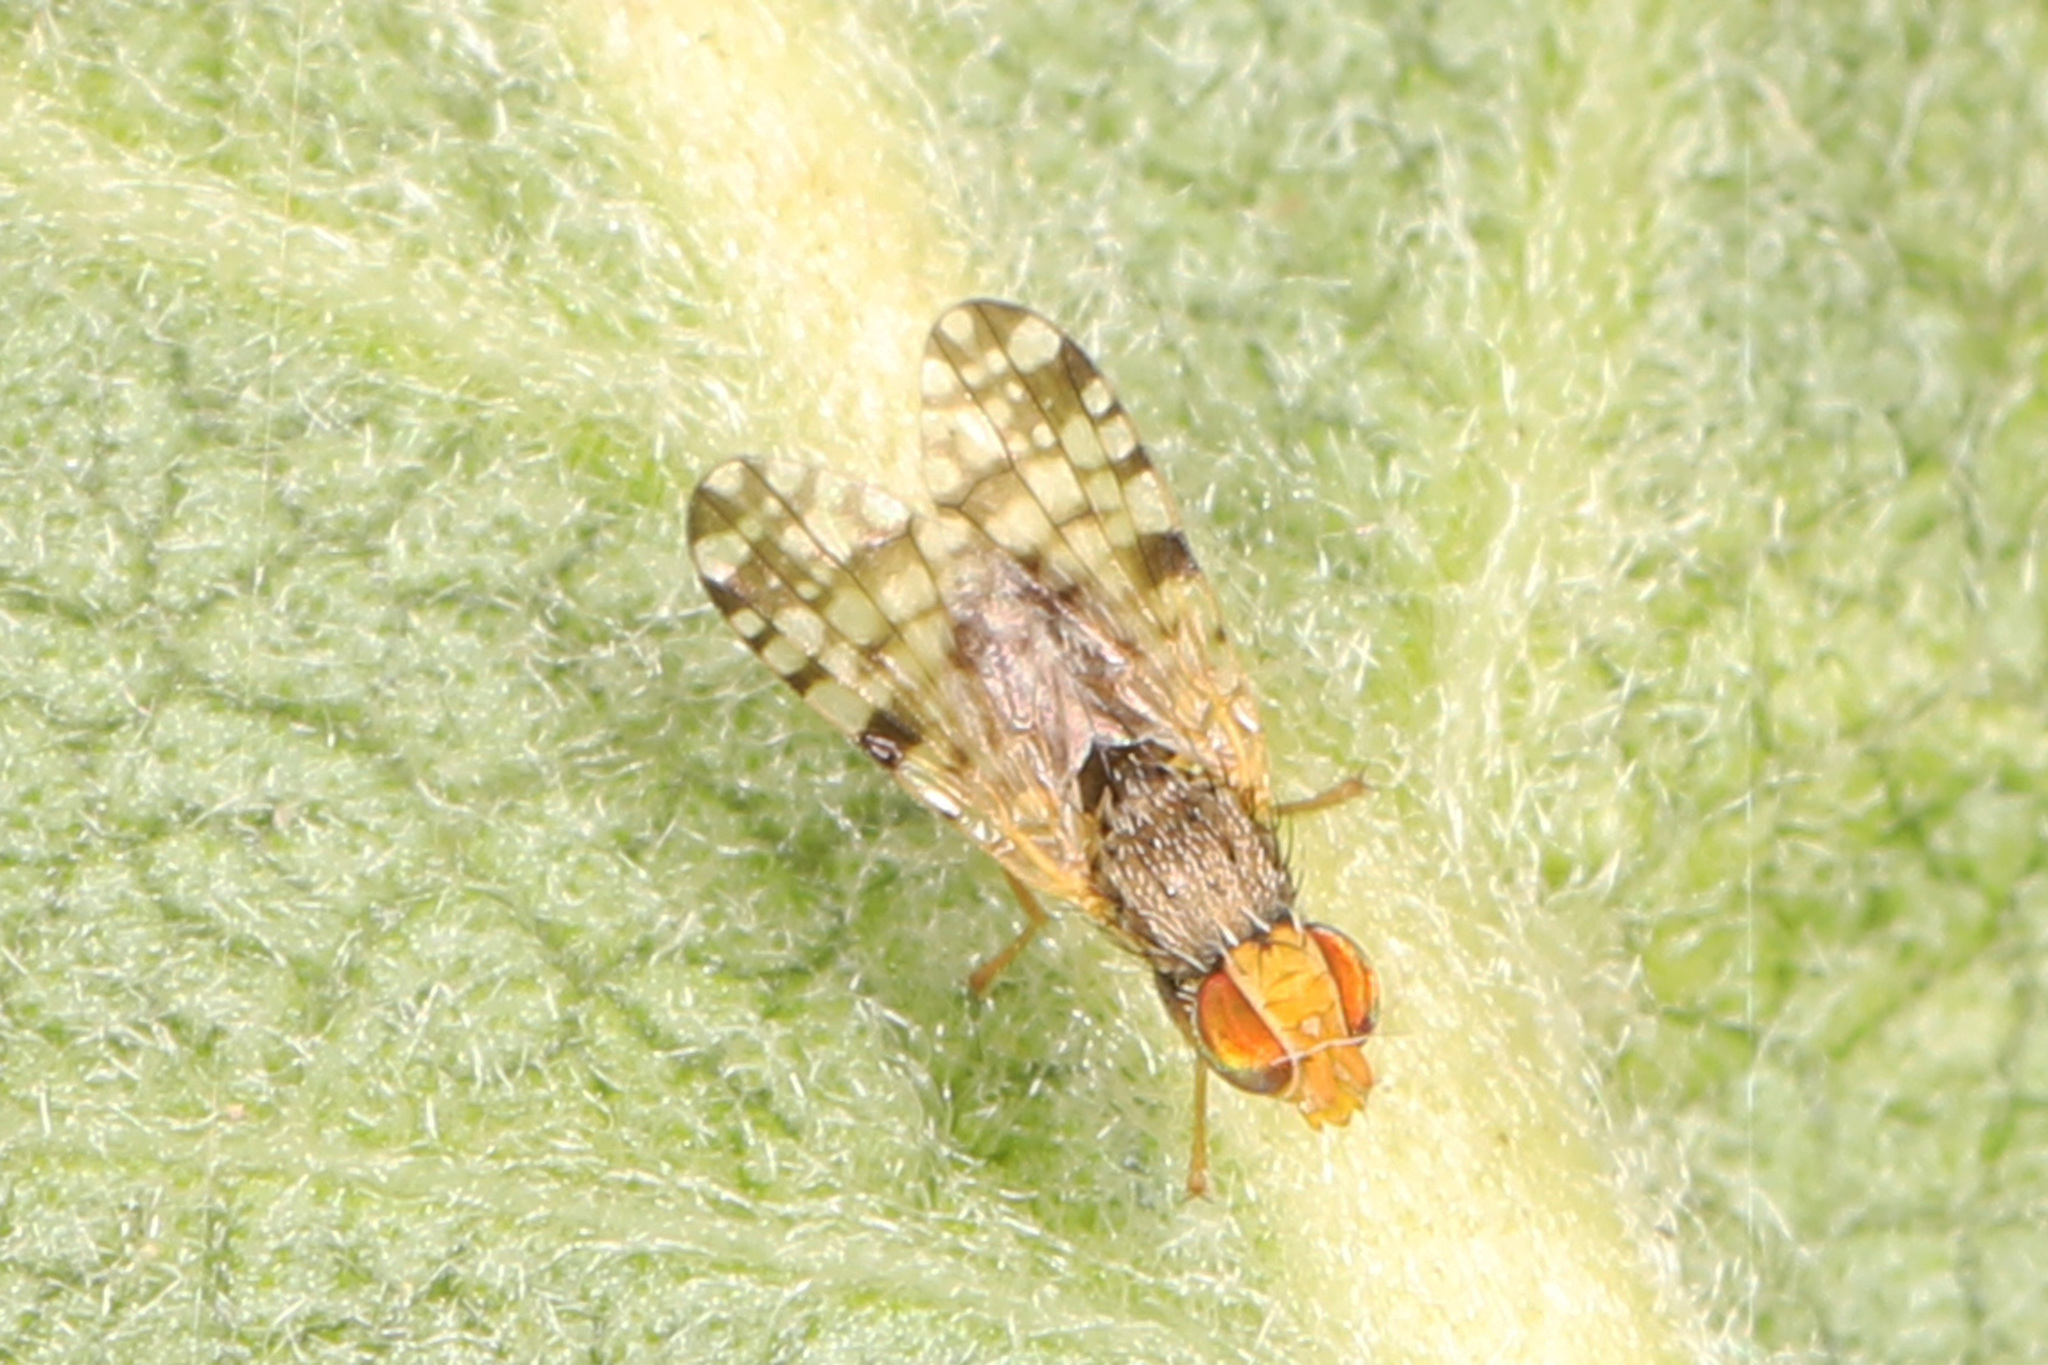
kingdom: Animalia
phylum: Arthropoda
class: Insecta
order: Diptera
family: Tephritidae
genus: Dioxyna
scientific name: Dioxyna picciola
